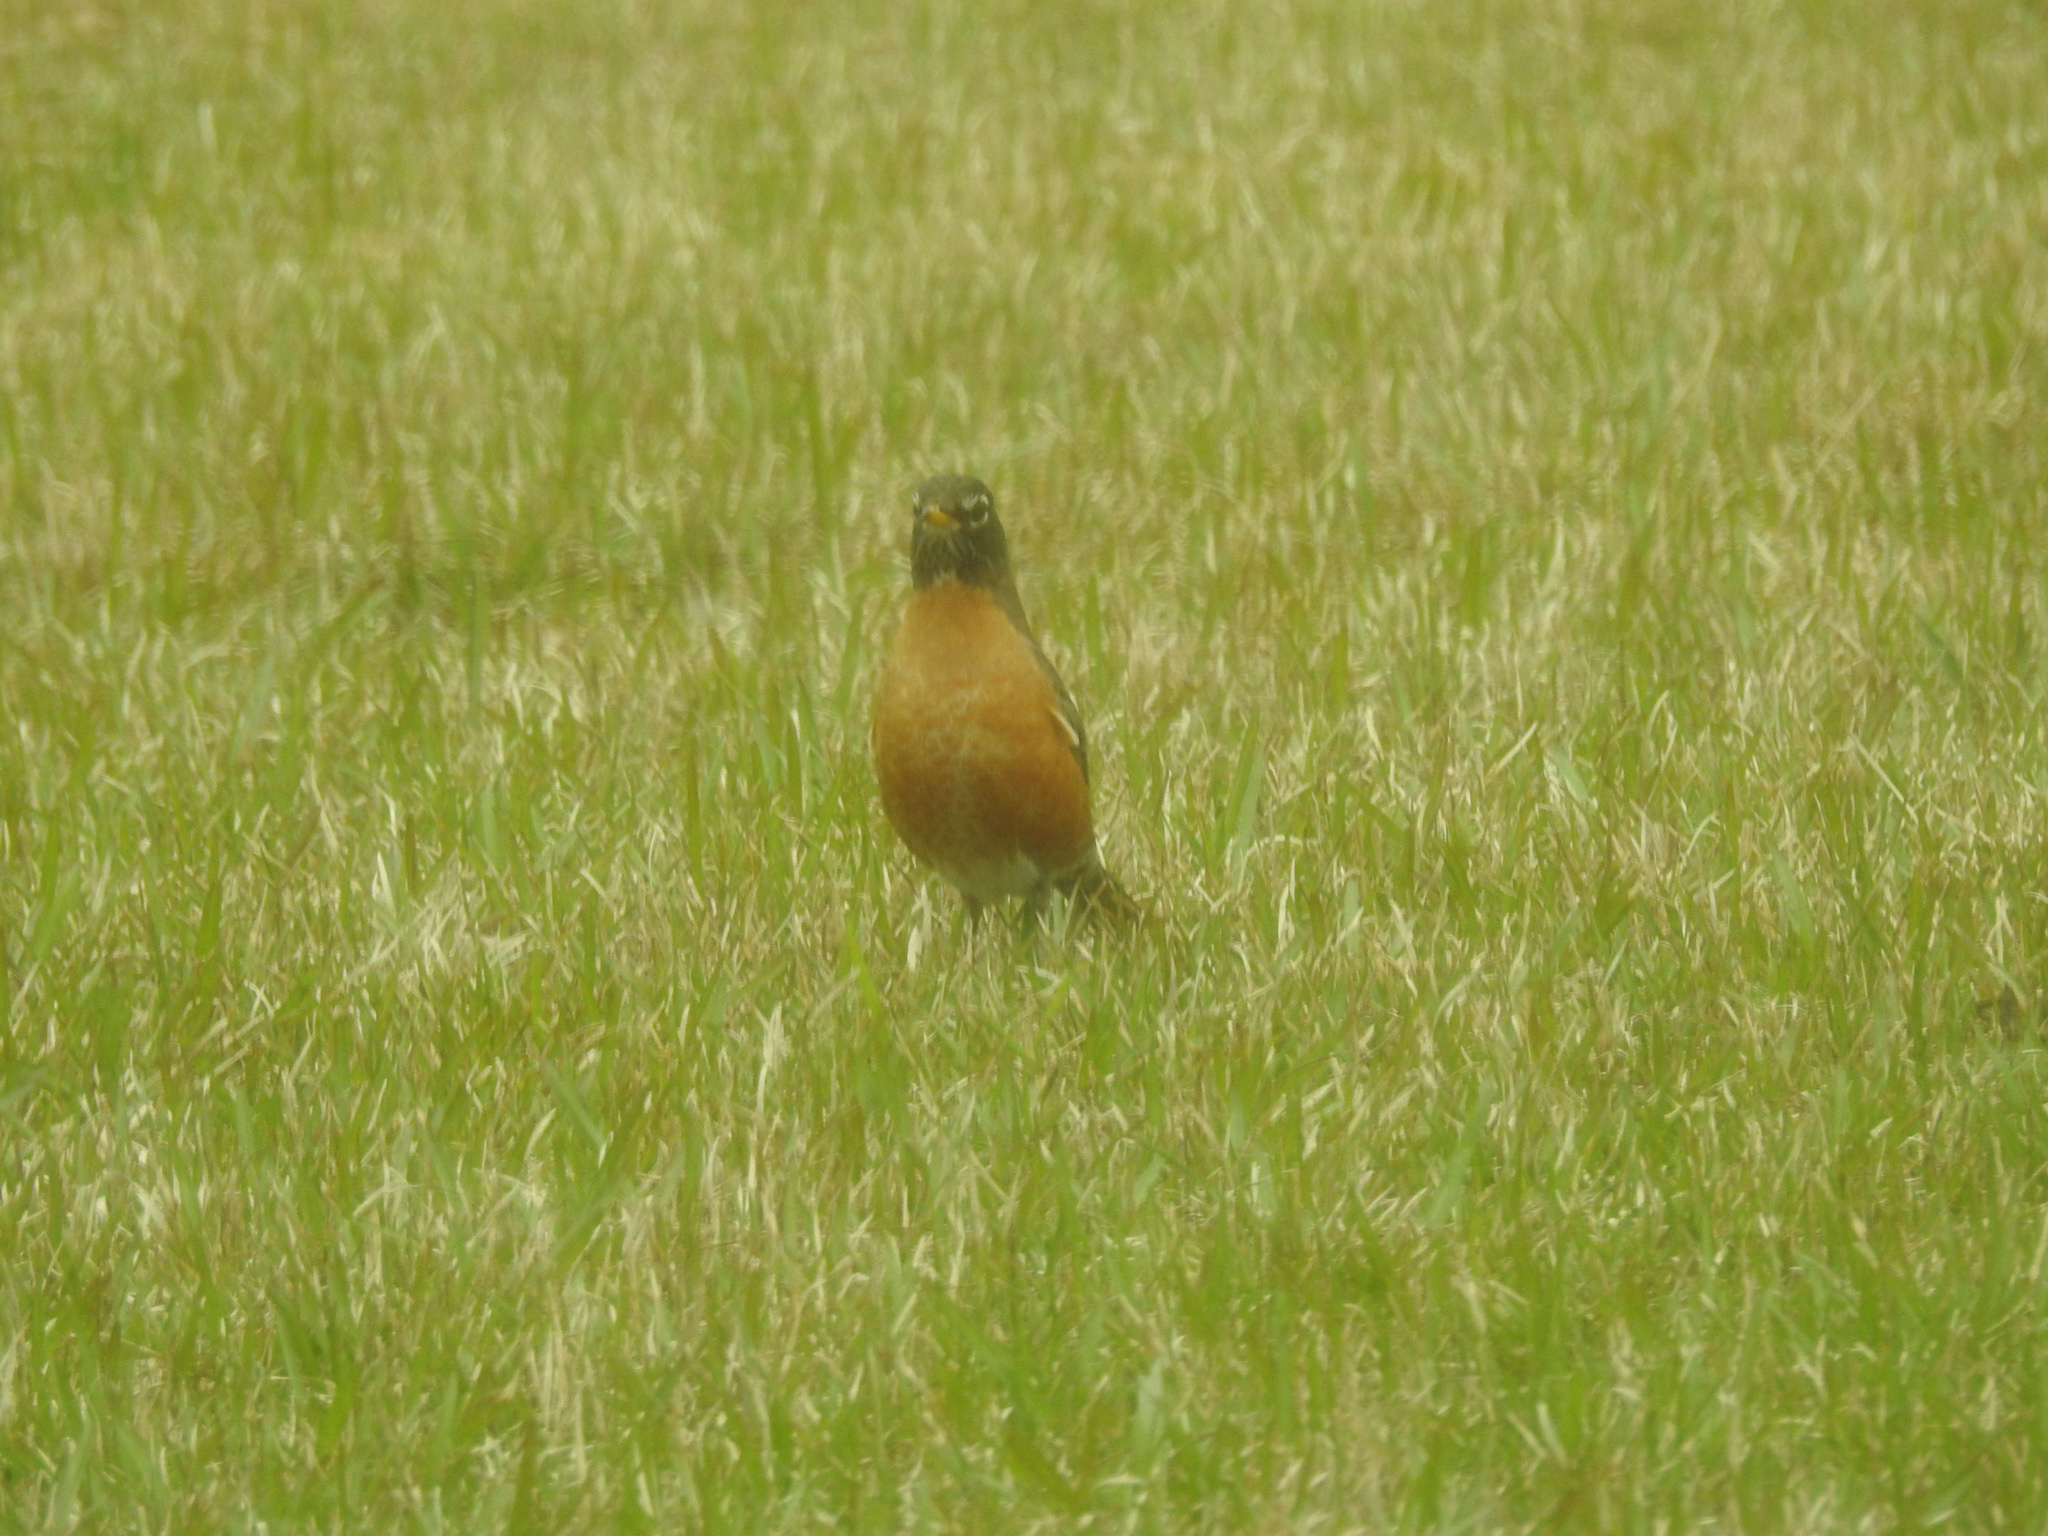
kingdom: Animalia
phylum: Chordata
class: Aves
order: Passeriformes
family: Turdidae
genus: Turdus
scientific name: Turdus migratorius
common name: American robin
